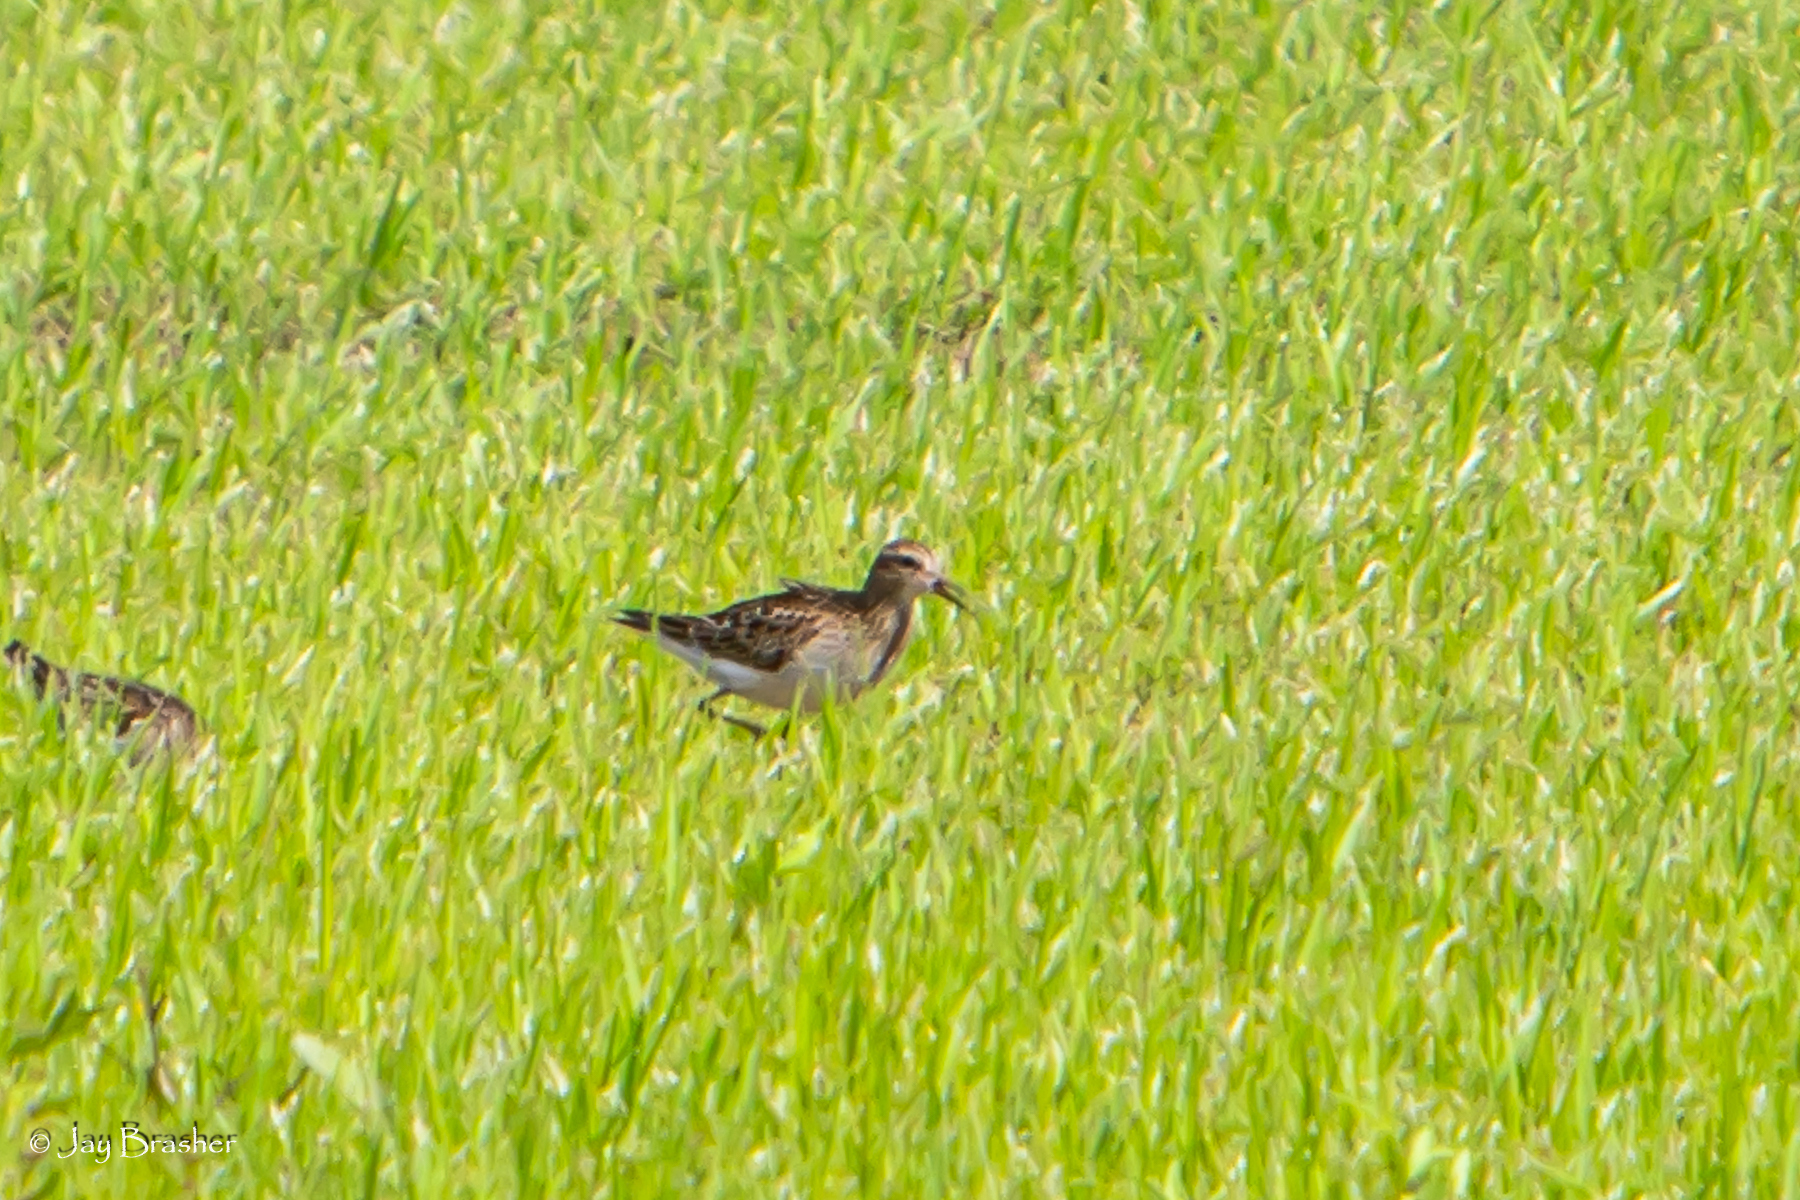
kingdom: Animalia
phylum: Chordata
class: Aves
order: Charadriiformes
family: Scolopacidae
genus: Calidris
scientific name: Calidris melanotos
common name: Pectoral sandpiper
